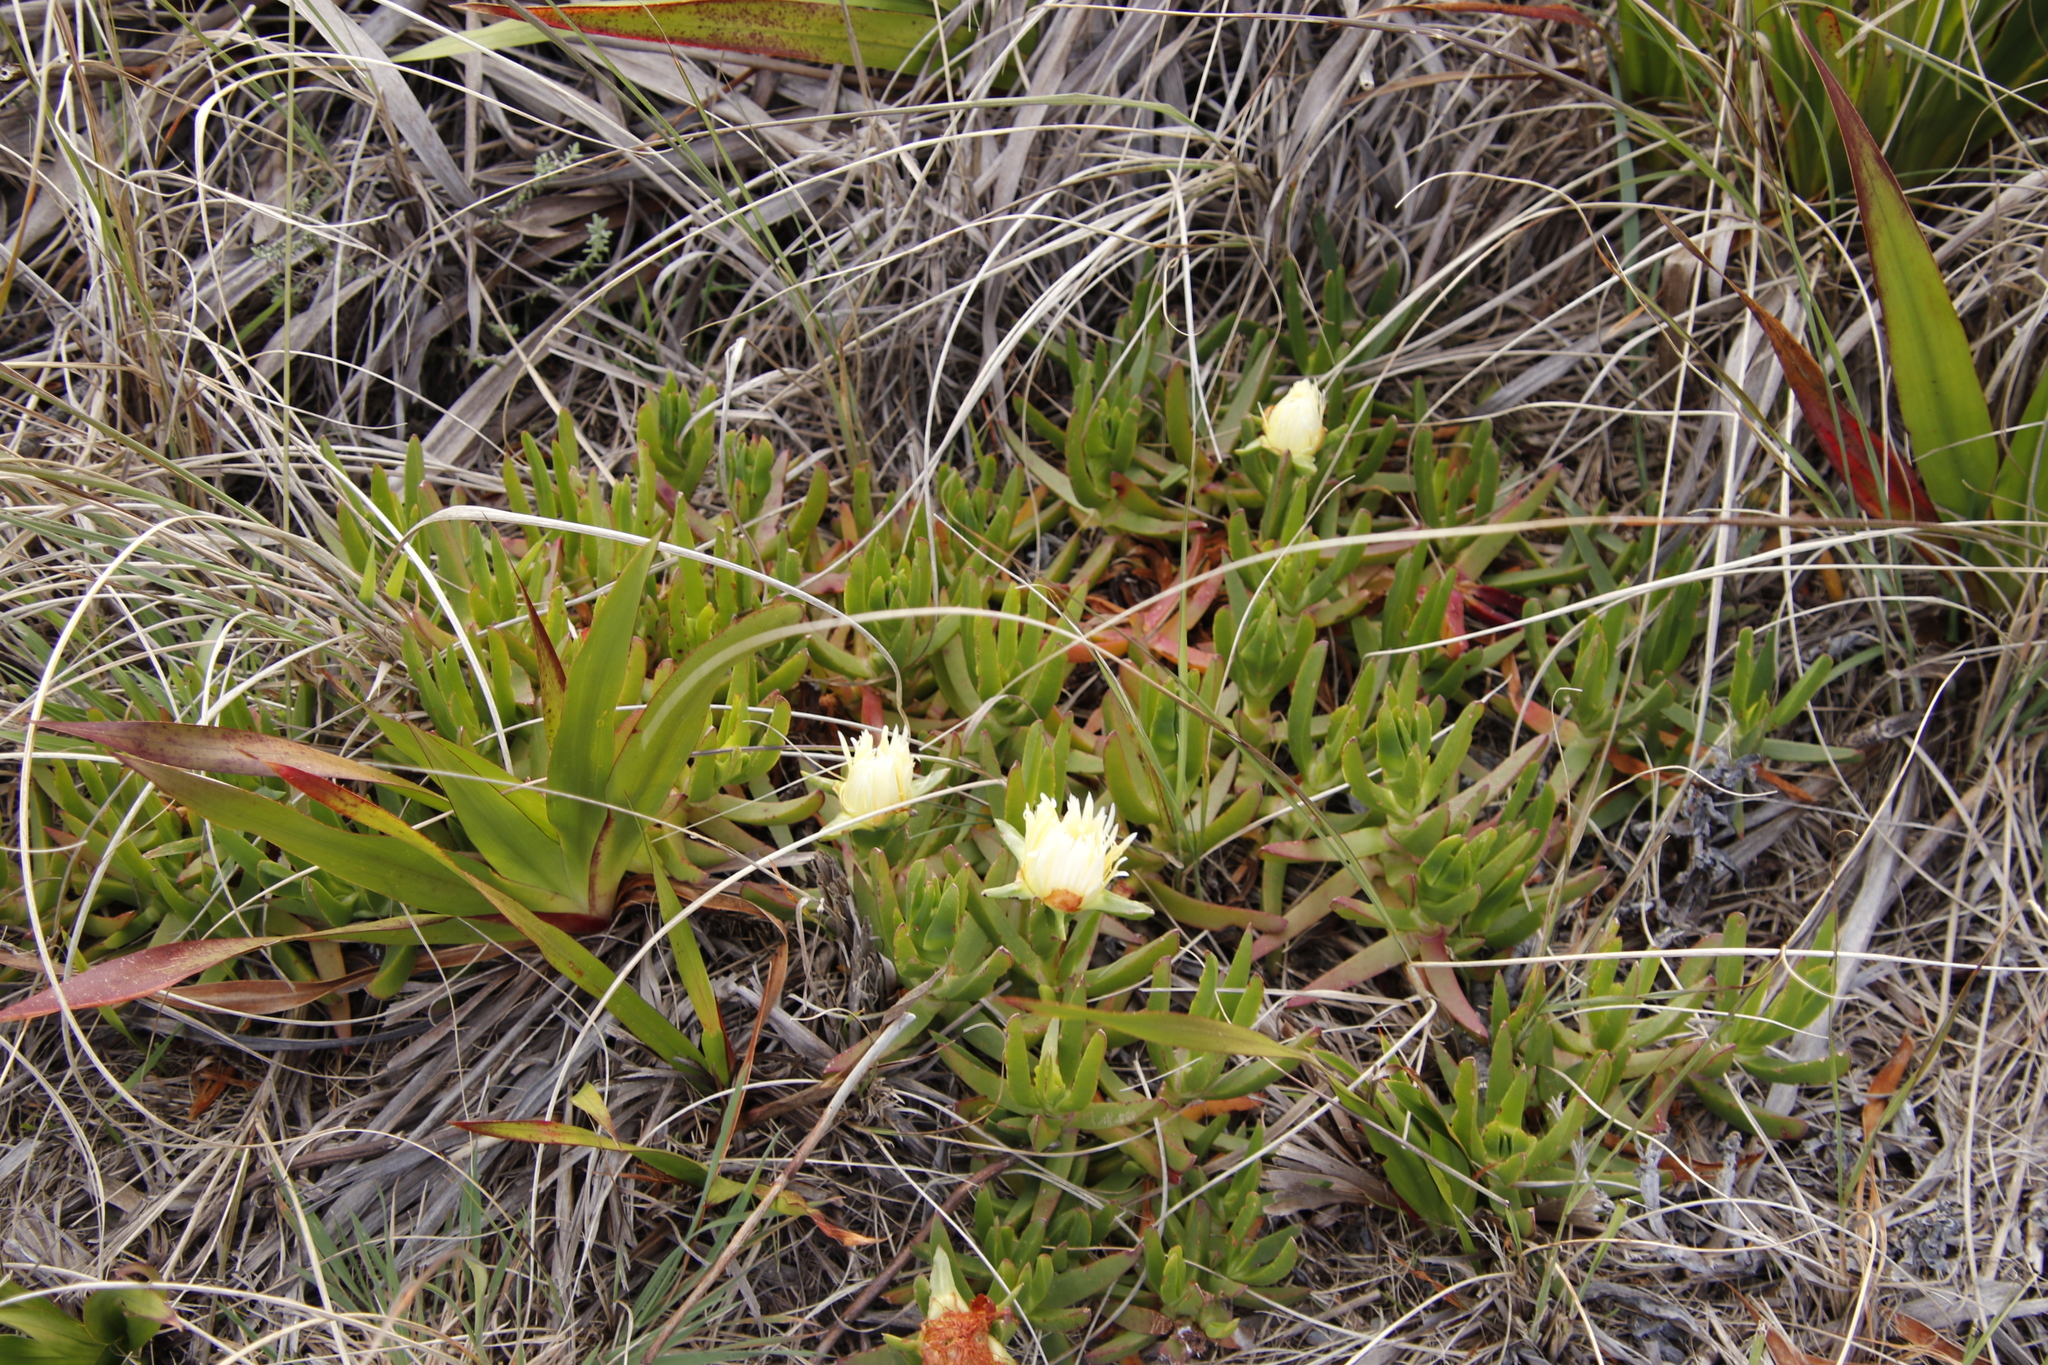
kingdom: Plantae
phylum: Tracheophyta
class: Magnoliopsida
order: Caryophyllales
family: Aizoaceae
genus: Carpobrotus
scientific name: Carpobrotus edulis
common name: Hottentot-fig
